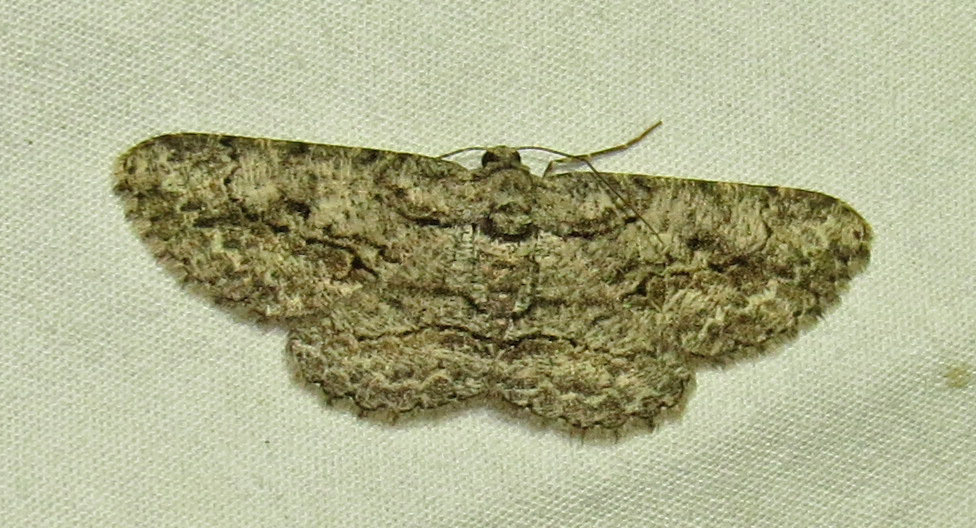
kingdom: Animalia
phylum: Arthropoda
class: Insecta
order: Lepidoptera
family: Geometridae
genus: Anavitrinella
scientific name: Anavitrinella pampinaria
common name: Common gray
